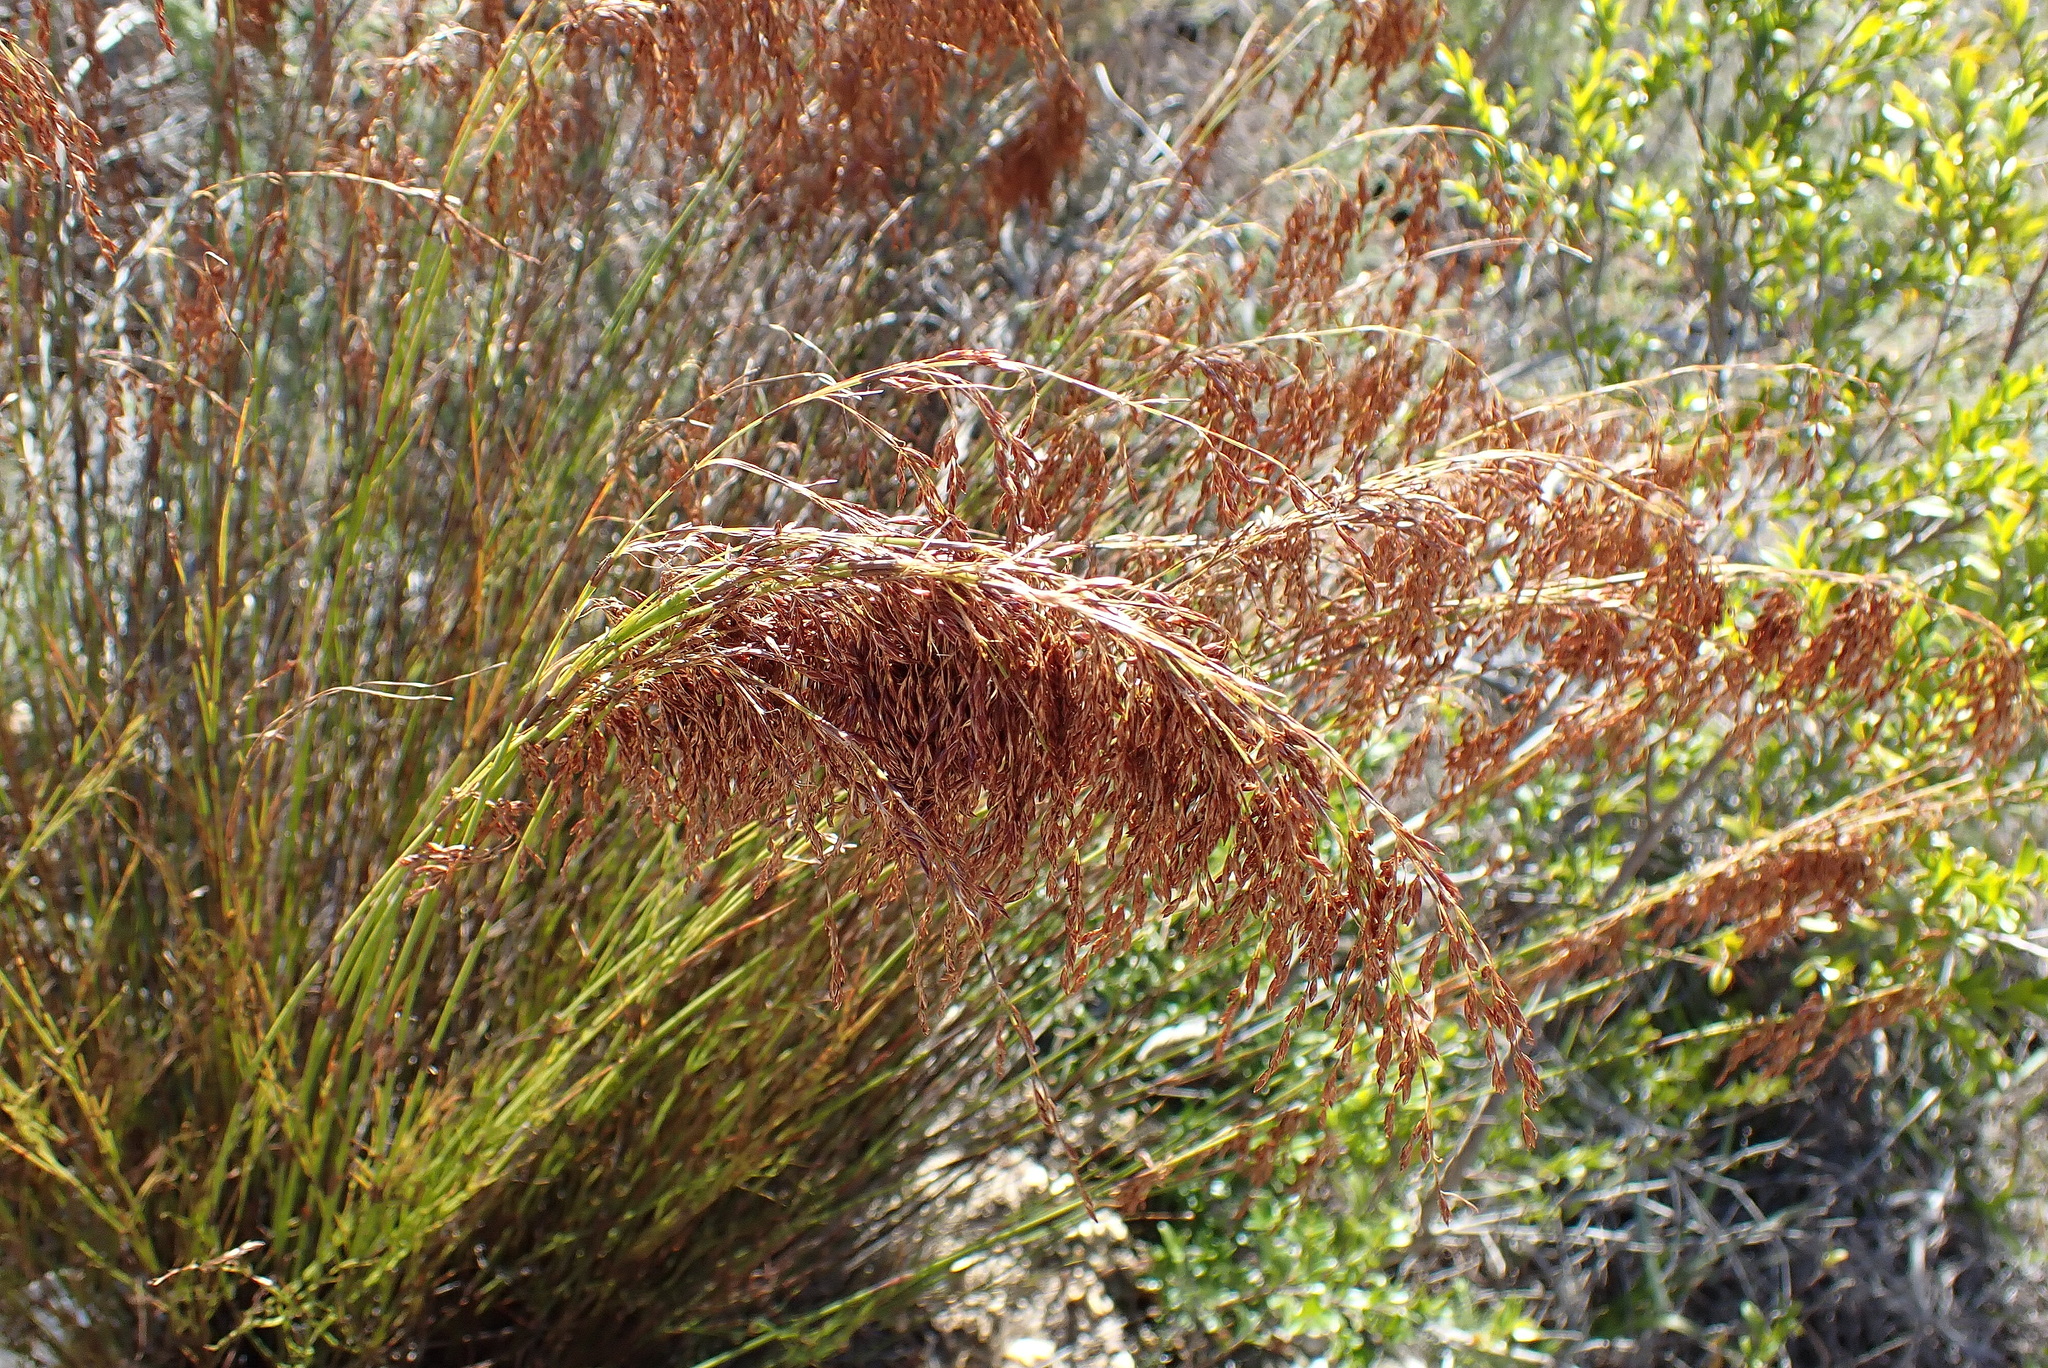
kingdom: Plantae
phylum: Tracheophyta
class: Liliopsida
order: Poales
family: Restionaceae
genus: Rhodocoma
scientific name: Rhodocoma gracilis
